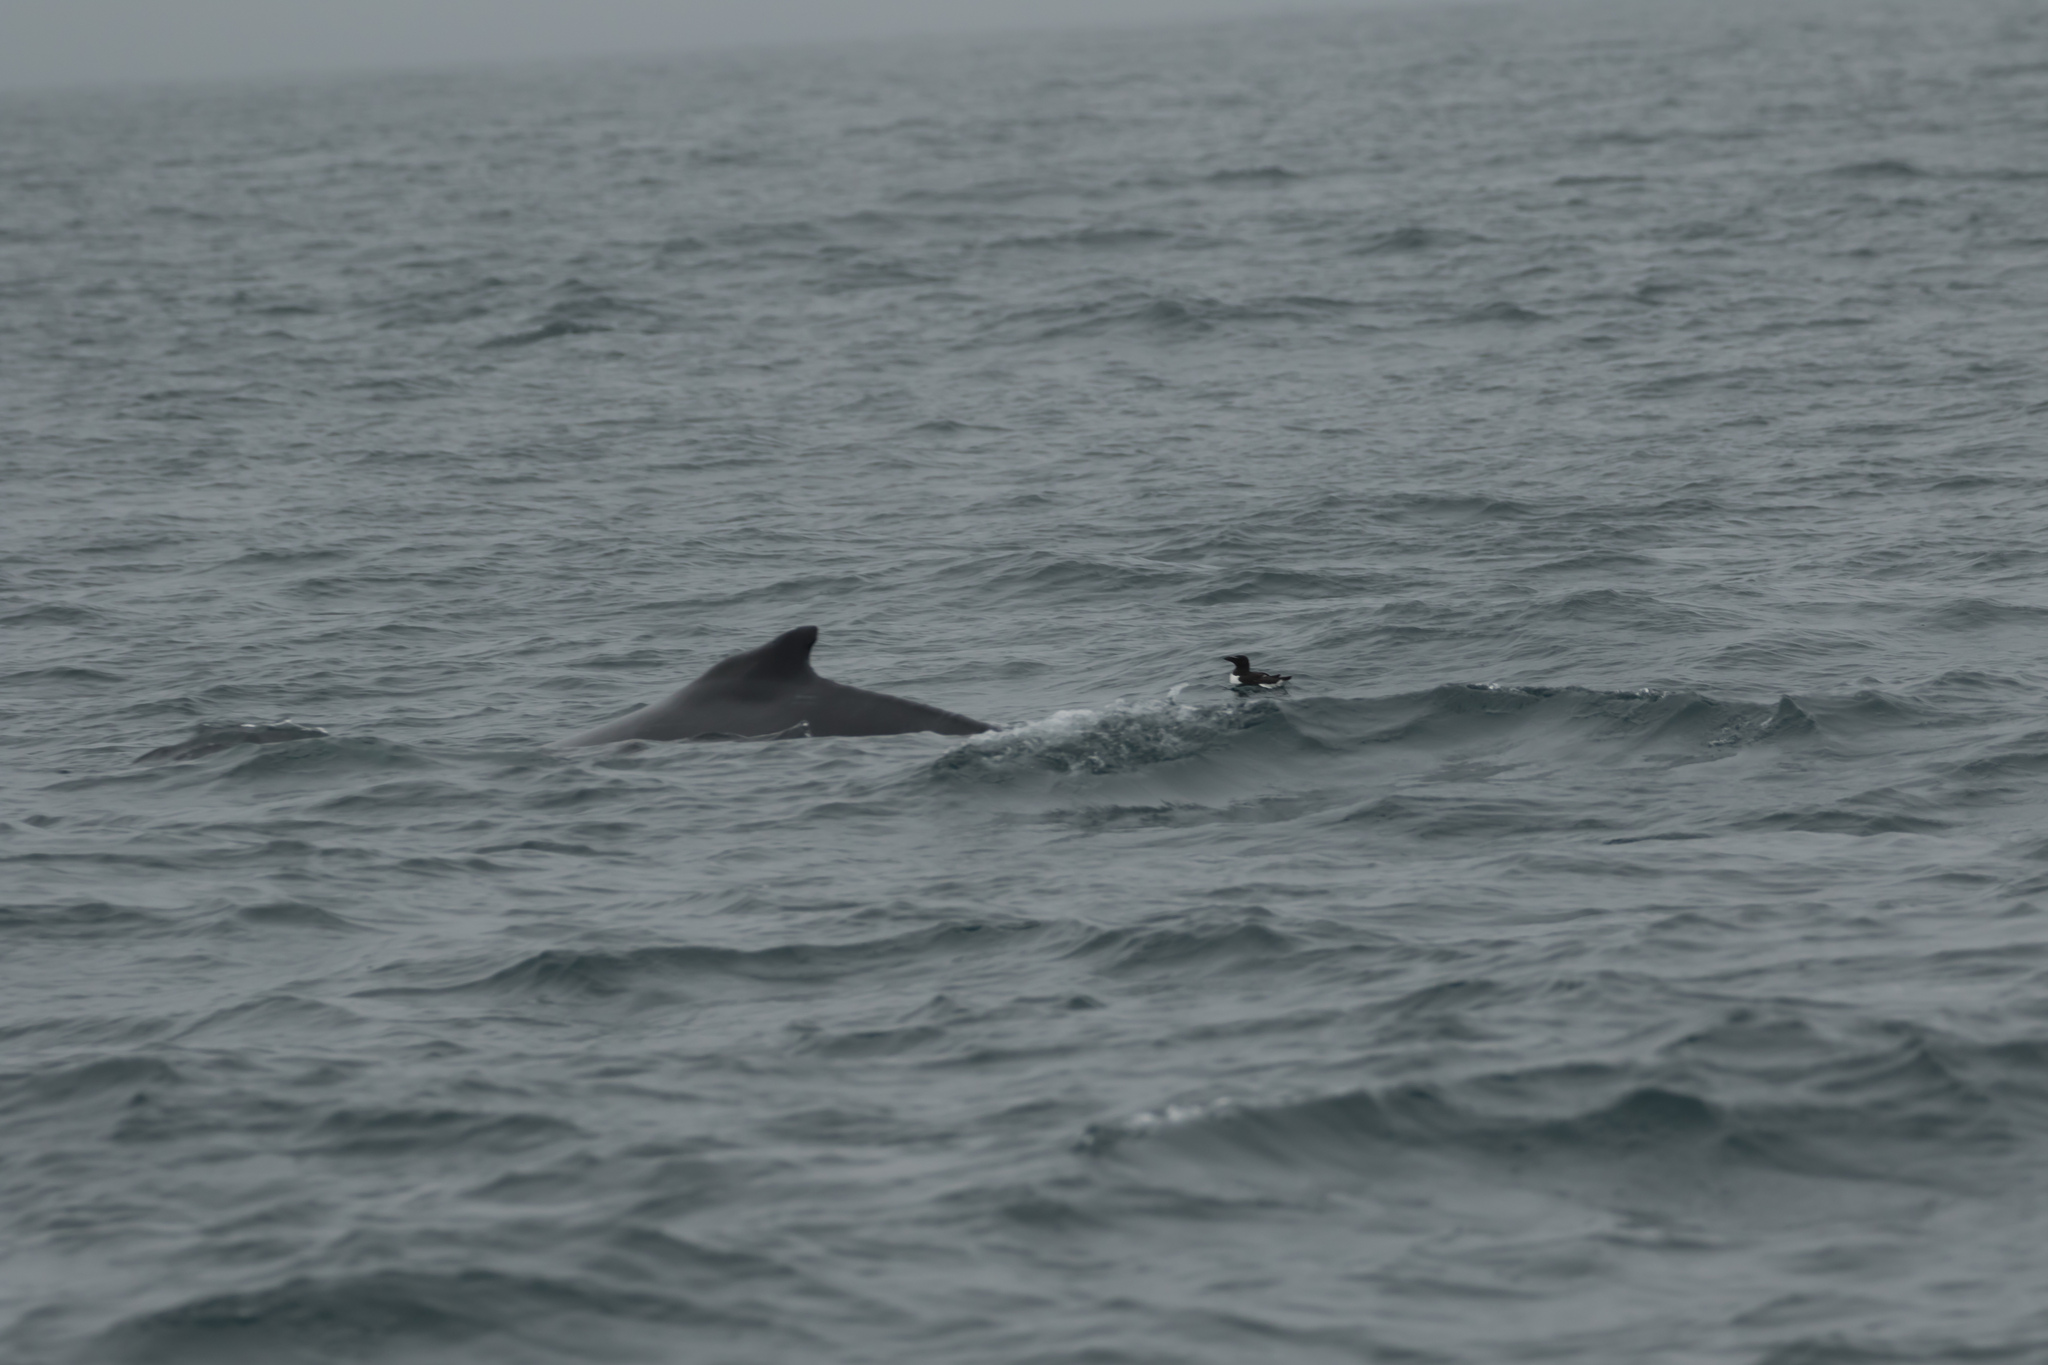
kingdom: Animalia
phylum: Chordata
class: Aves
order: Charadriiformes
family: Alcidae
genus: Alca
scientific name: Alca torda
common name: Razorbill
